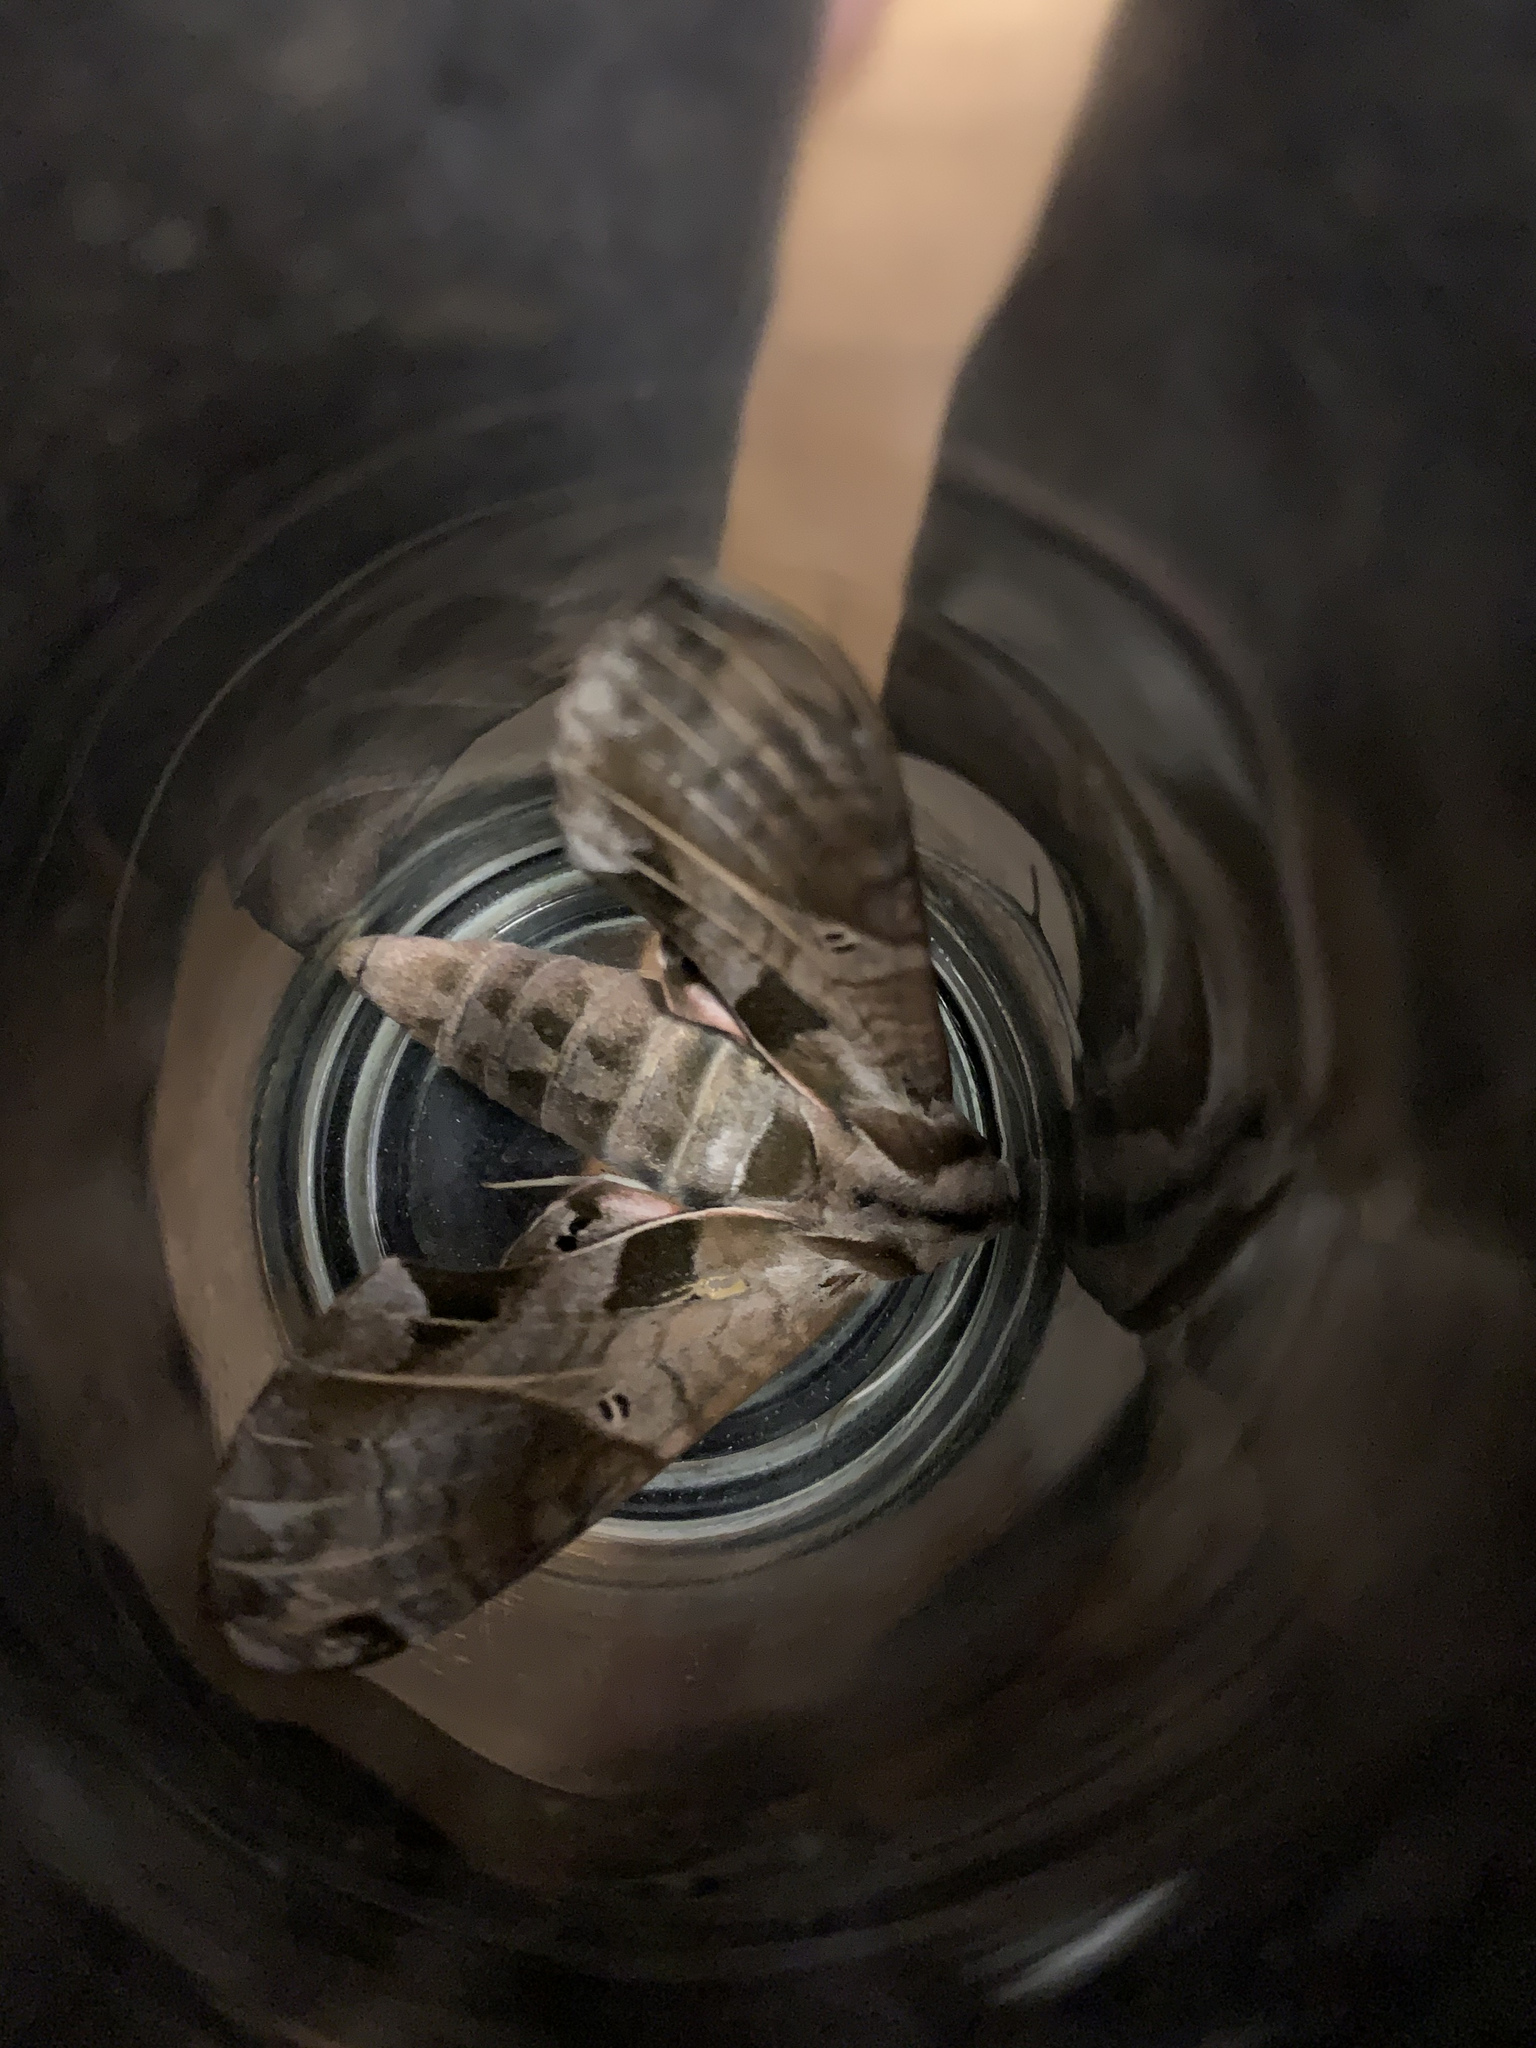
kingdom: Animalia
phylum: Arthropoda
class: Insecta
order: Lepidoptera
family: Sphingidae
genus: Eumorpha
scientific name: Eumorpha analis
